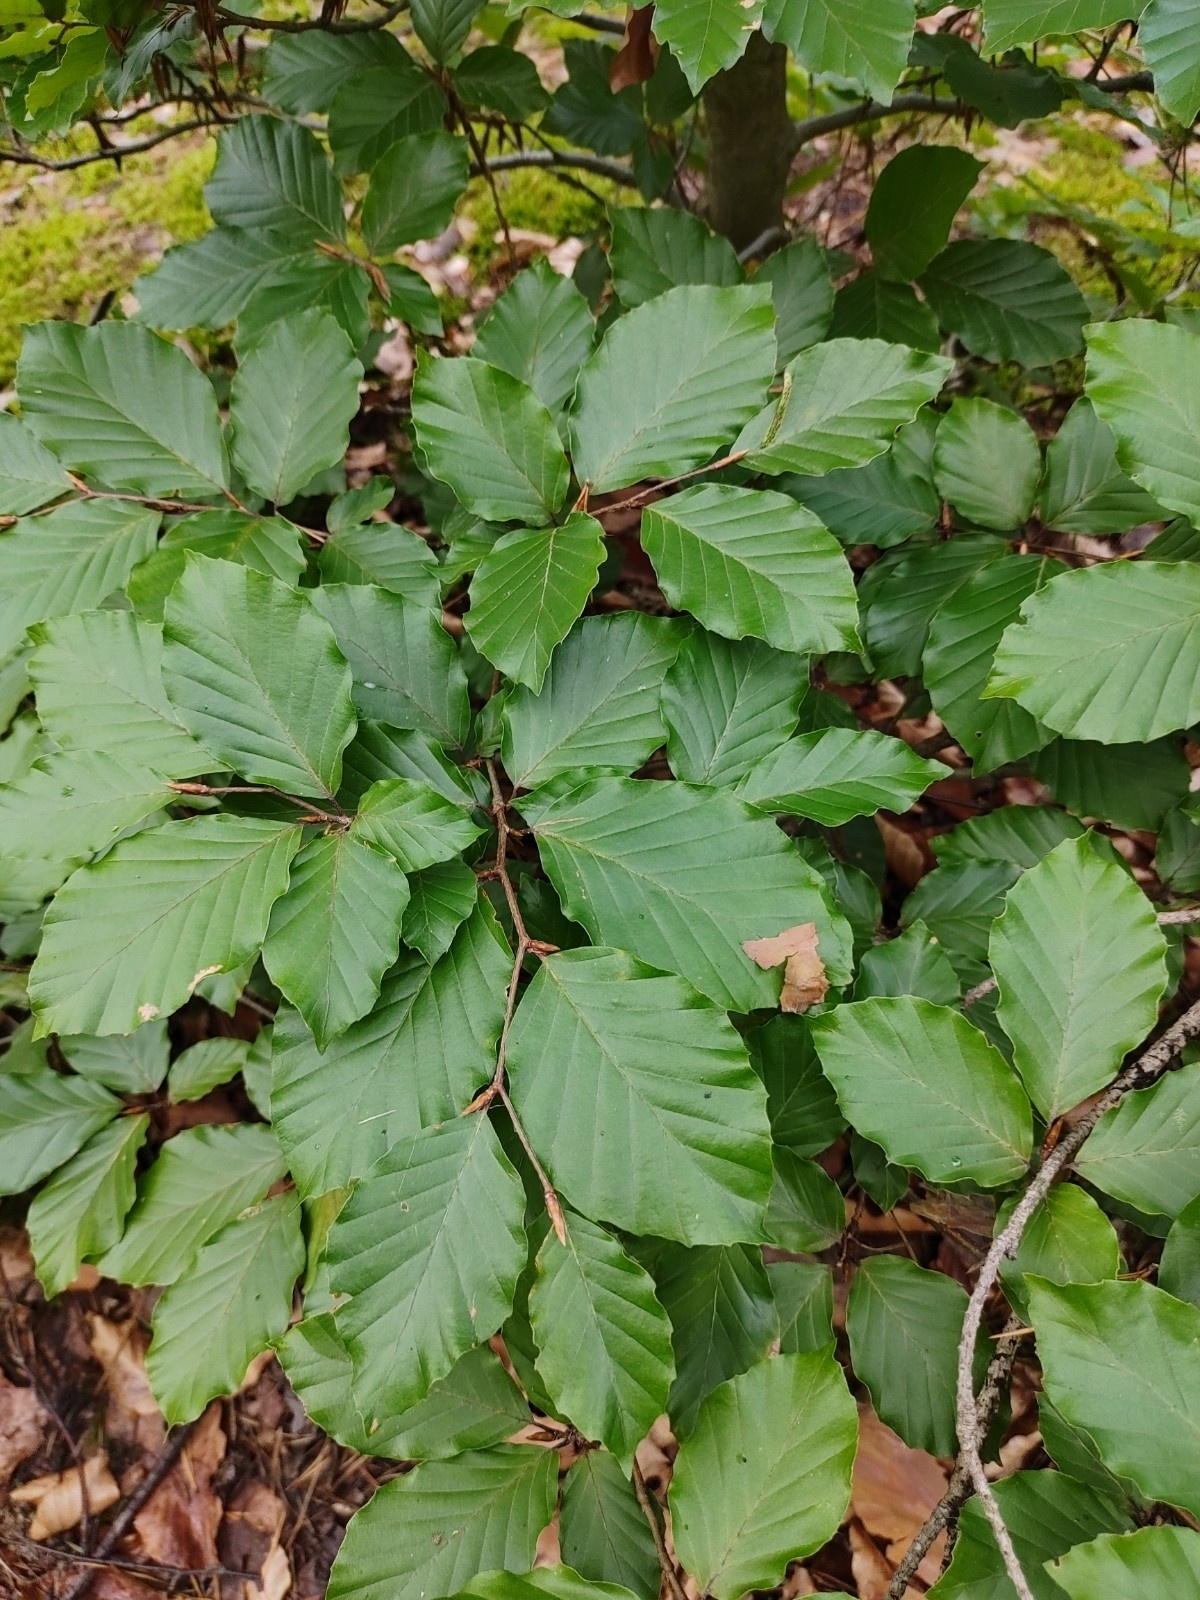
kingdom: Plantae
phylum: Tracheophyta
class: Magnoliopsida
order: Fagales
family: Fagaceae
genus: Fagus
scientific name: Fagus sylvatica
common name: Beech
